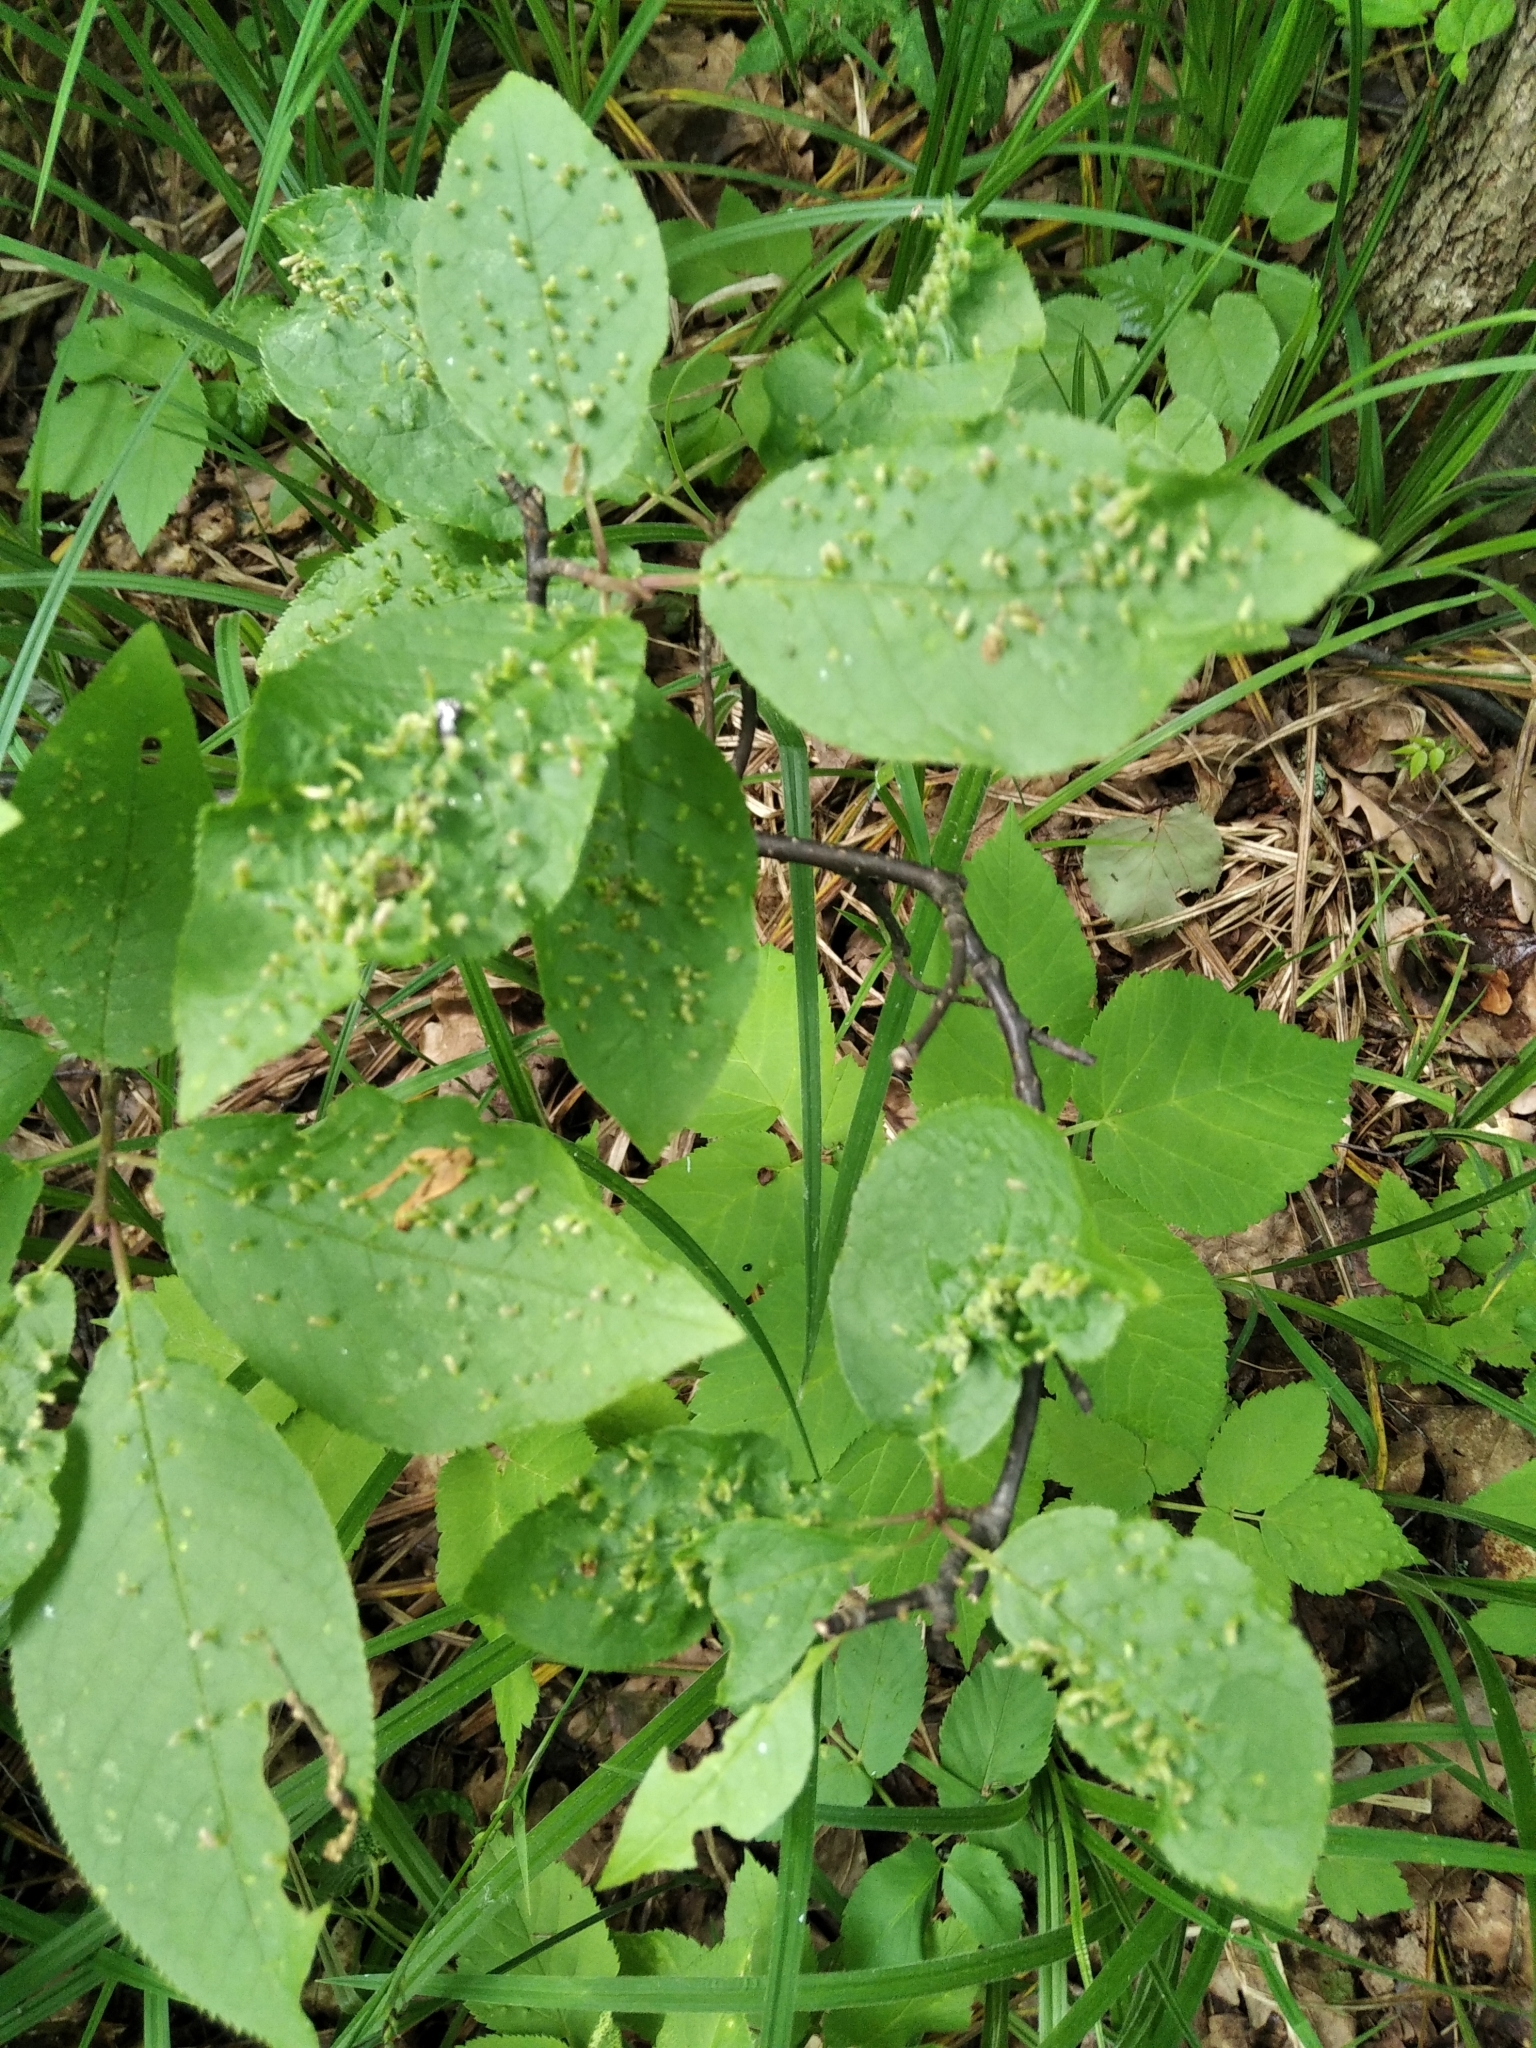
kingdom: Animalia
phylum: Arthropoda
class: Arachnida
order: Trombidiformes
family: Eriophyidae
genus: Phyllocoptes
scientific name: Phyllocoptes eupadi
